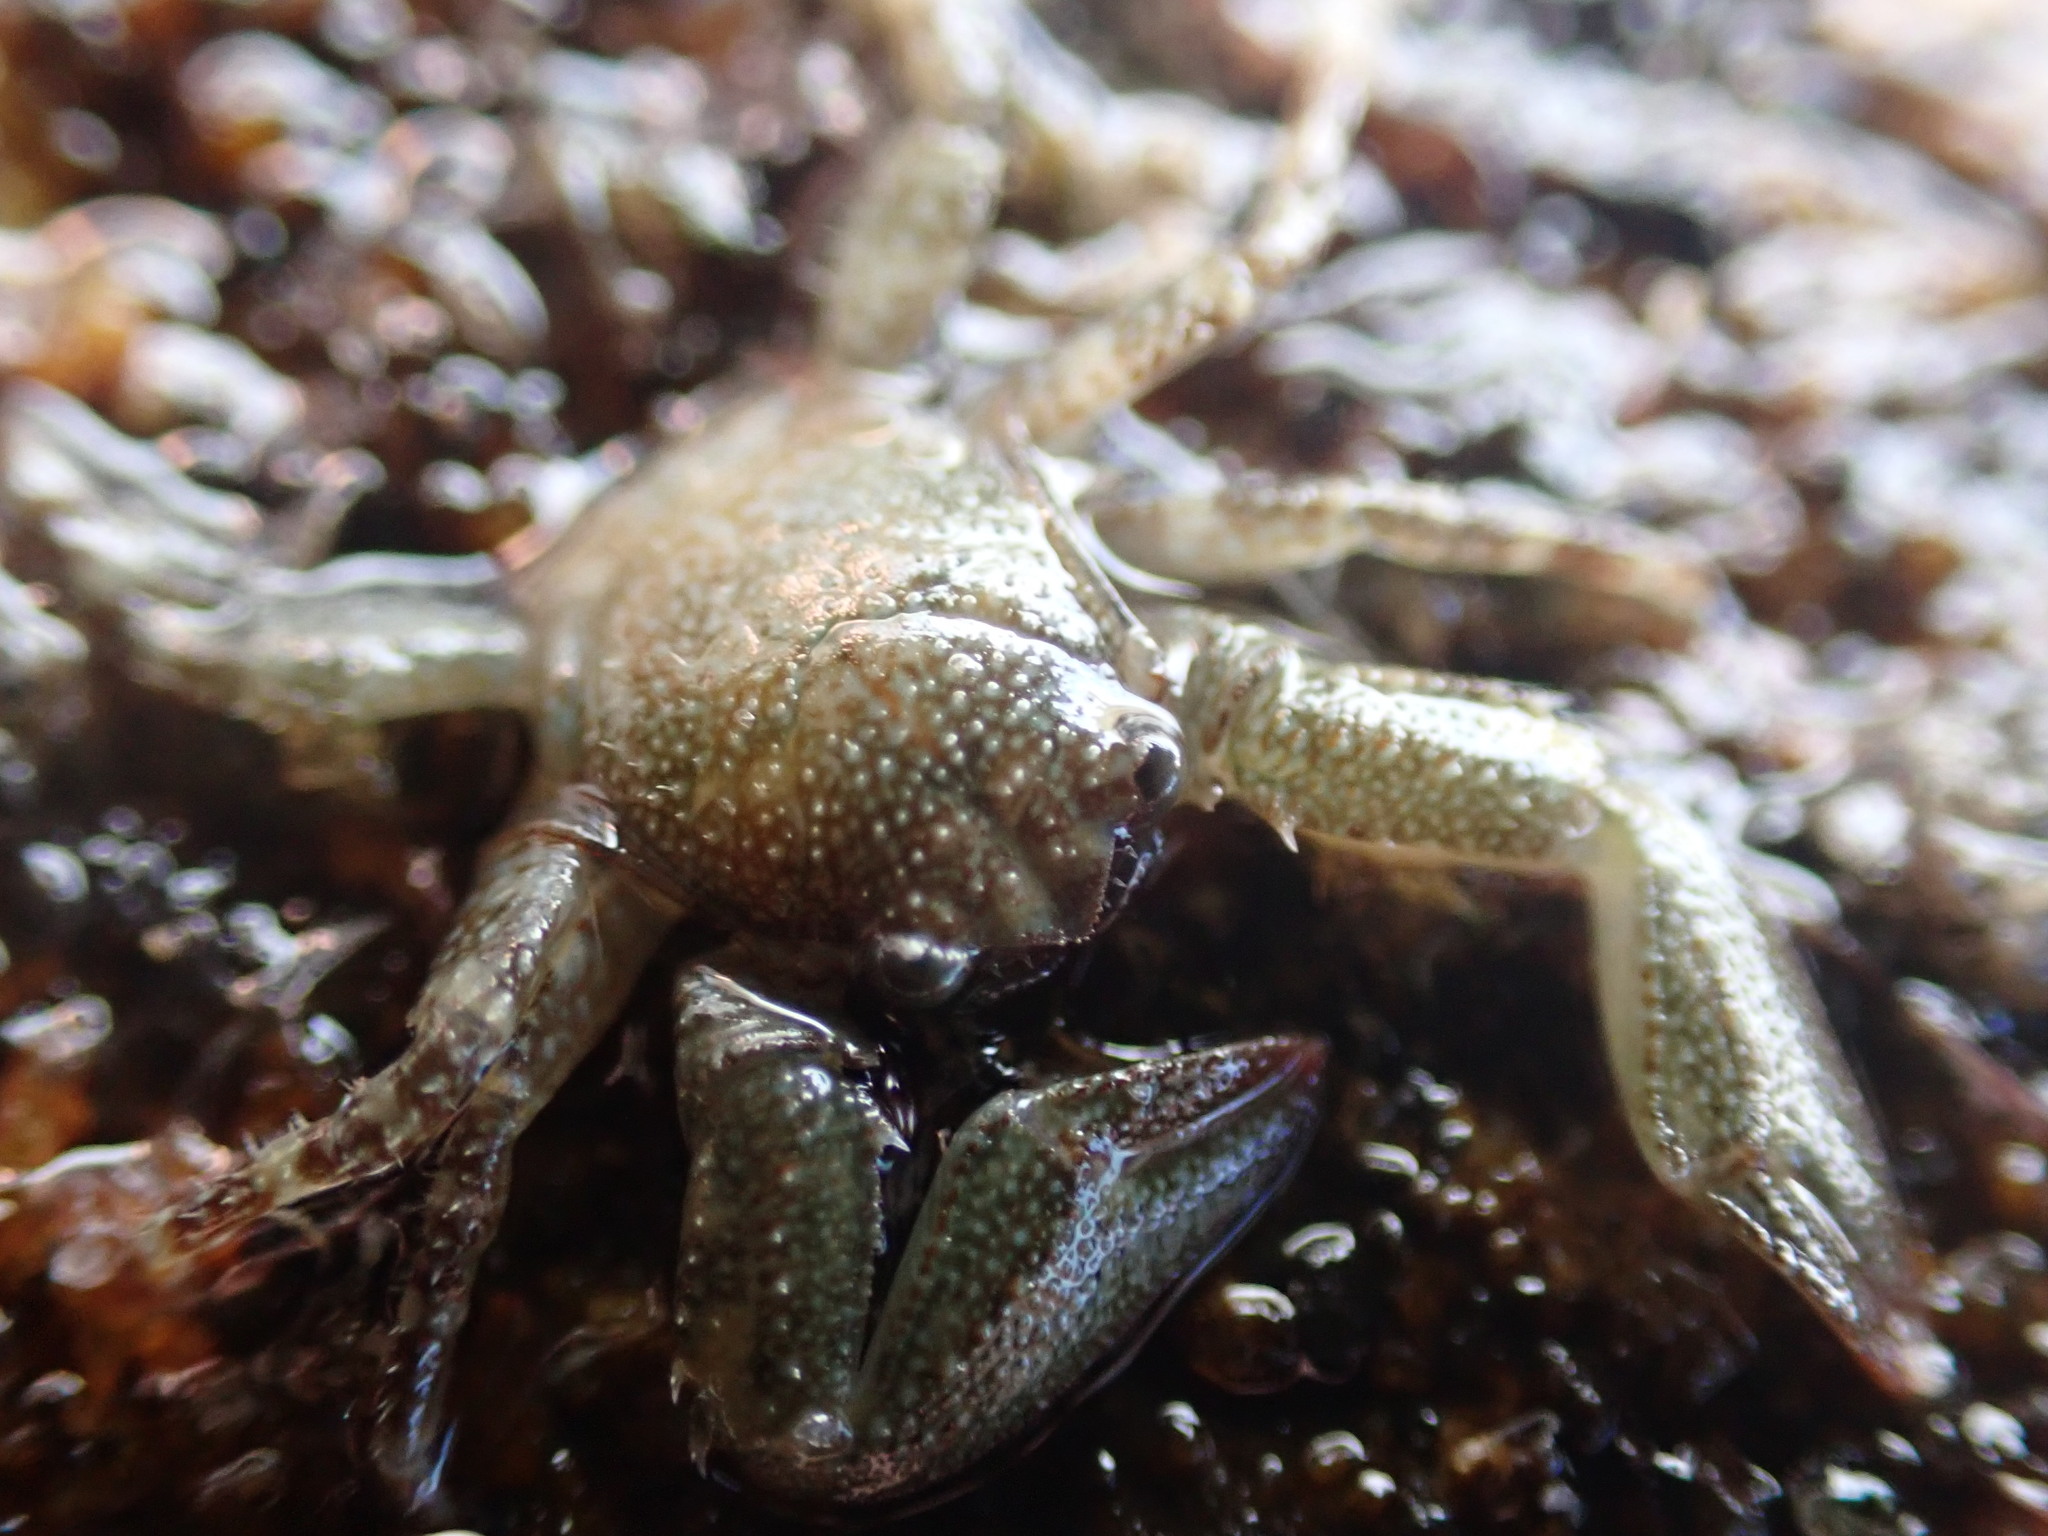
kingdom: Animalia
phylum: Arthropoda
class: Malacostraca
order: Decapoda
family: Porcellanidae
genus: Petrolisthes
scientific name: Petrolisthes elongatus
